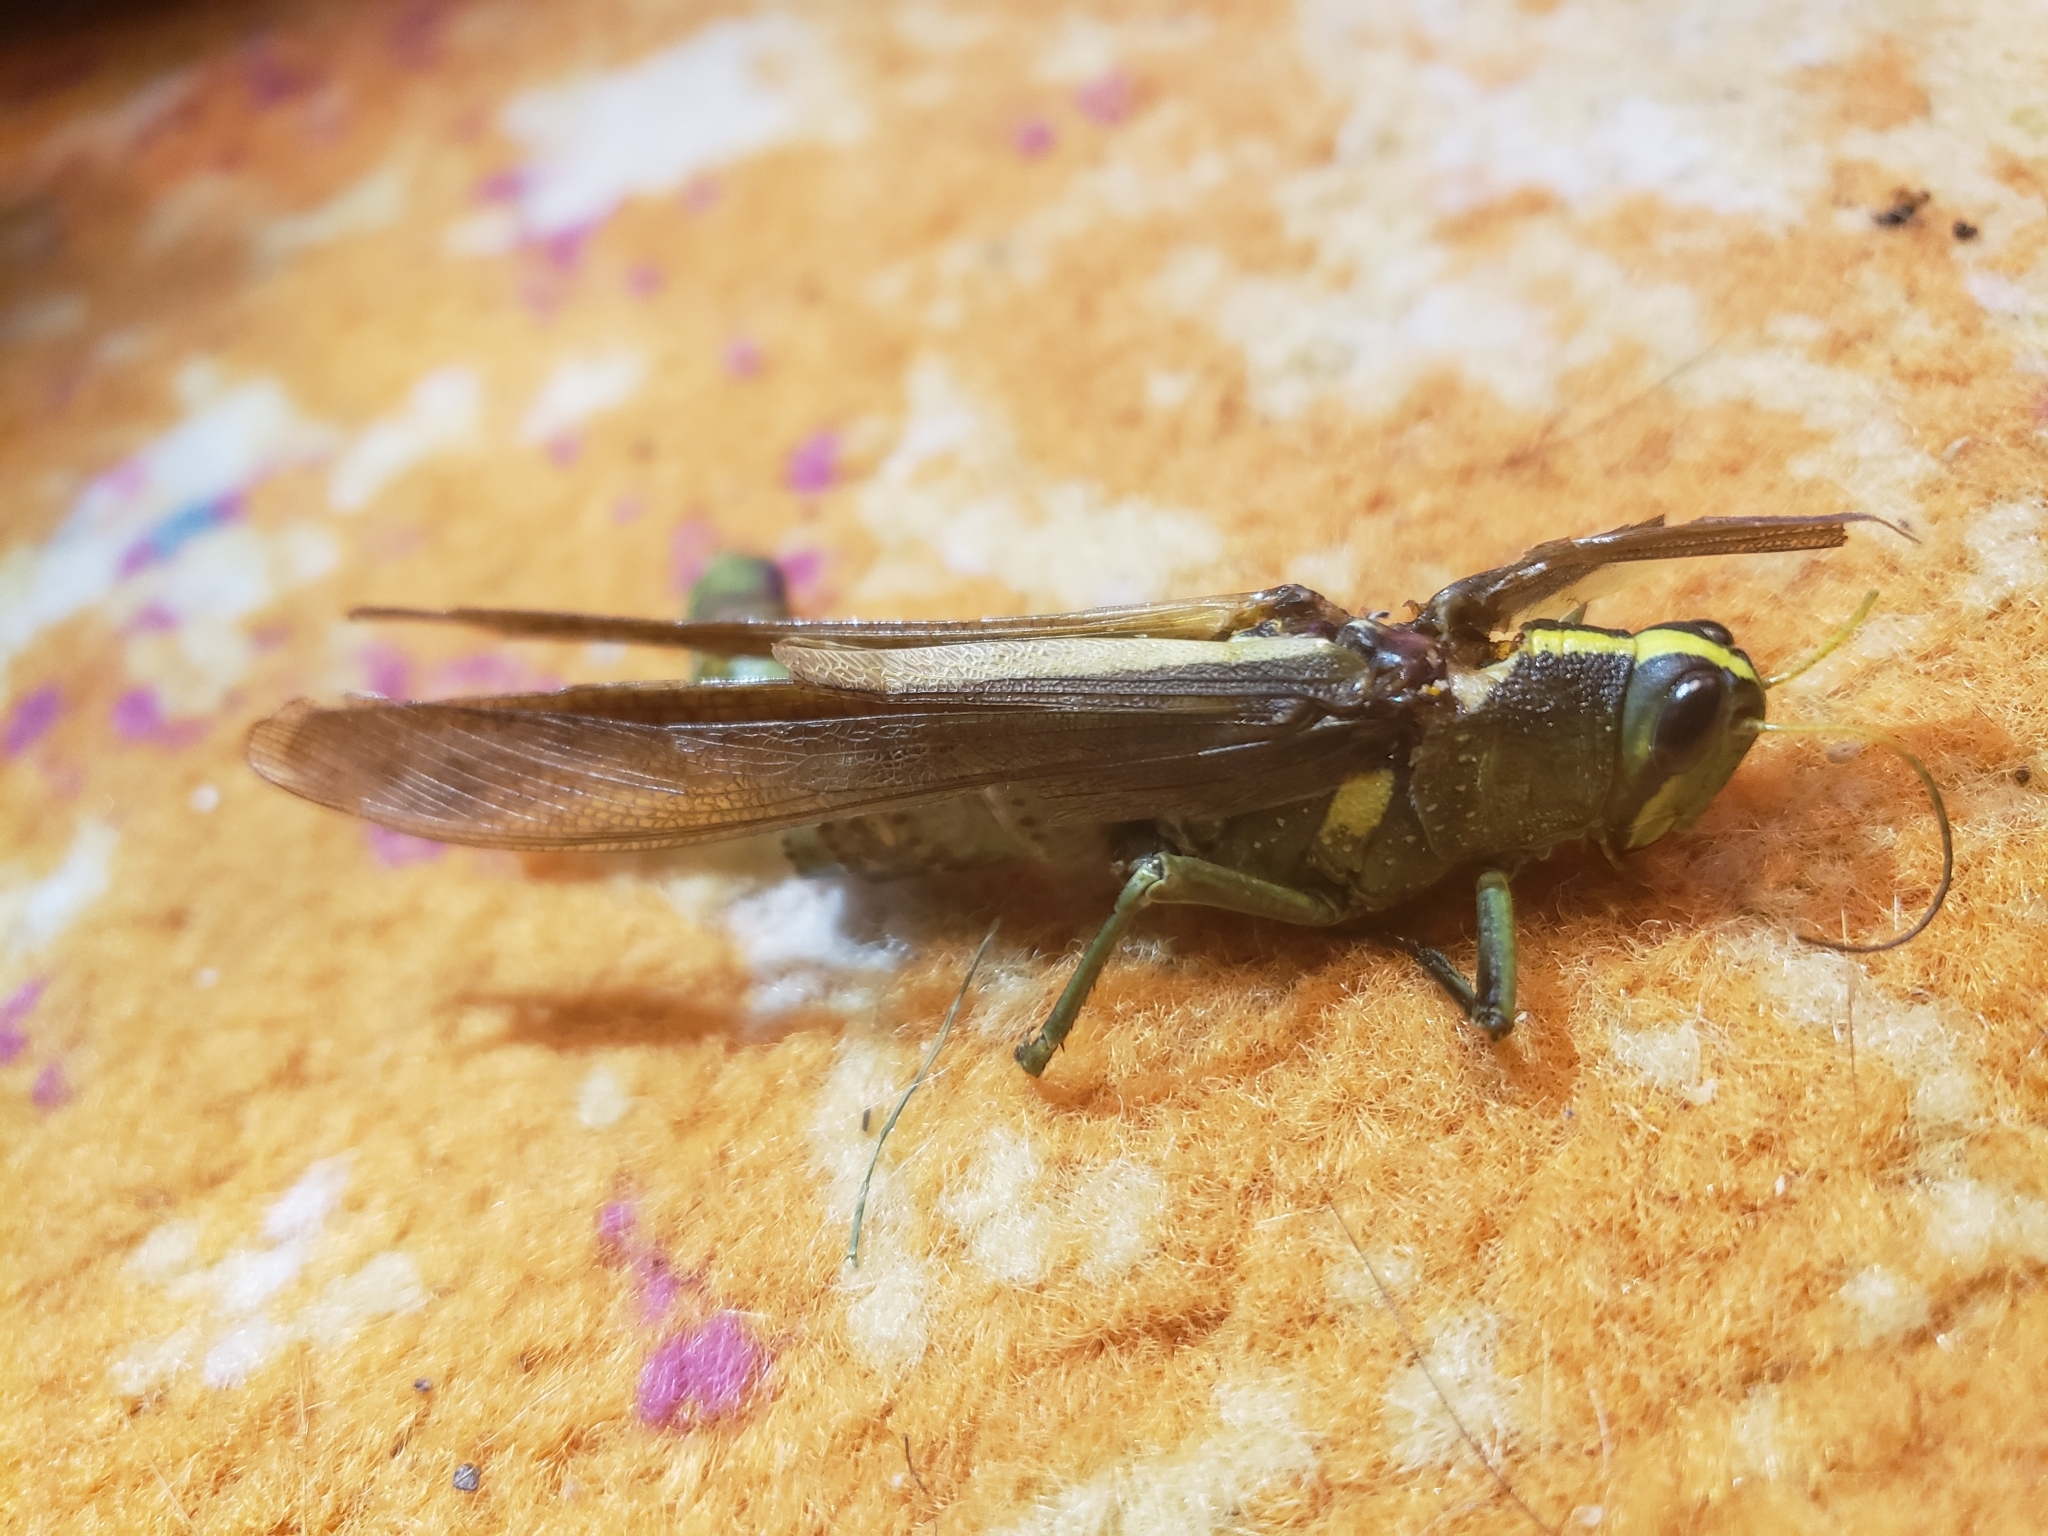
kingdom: Animalia
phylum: Arthropoda
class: Insecta
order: Orthoptera
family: Acrididae
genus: Schistocerca
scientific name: Schistocerca obscura
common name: Obscure bird grasshopper
